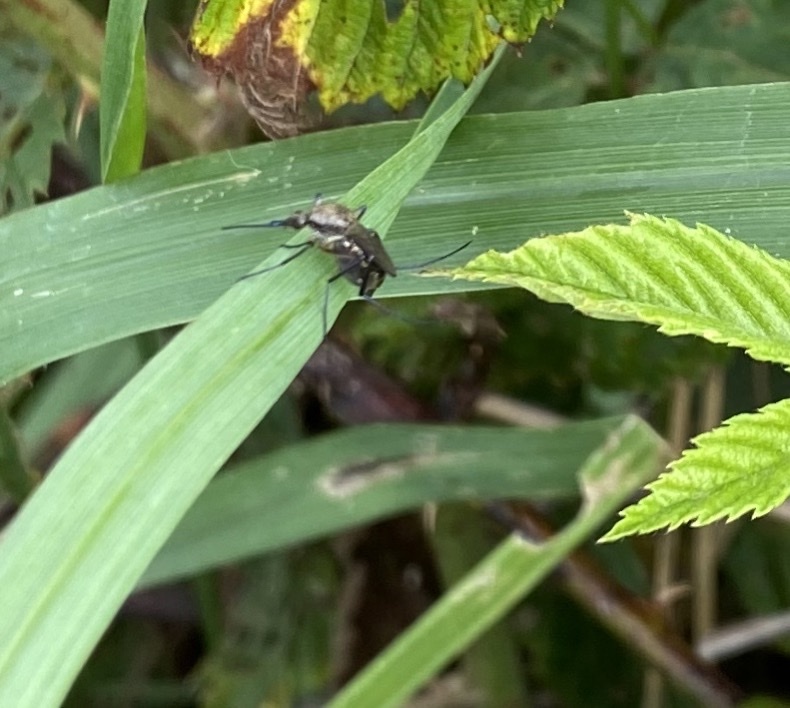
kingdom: Animalia
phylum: Arthropoda
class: Insecta
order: Diptera
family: Culicidae
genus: Psorophora
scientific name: Psorophora cyanescens
